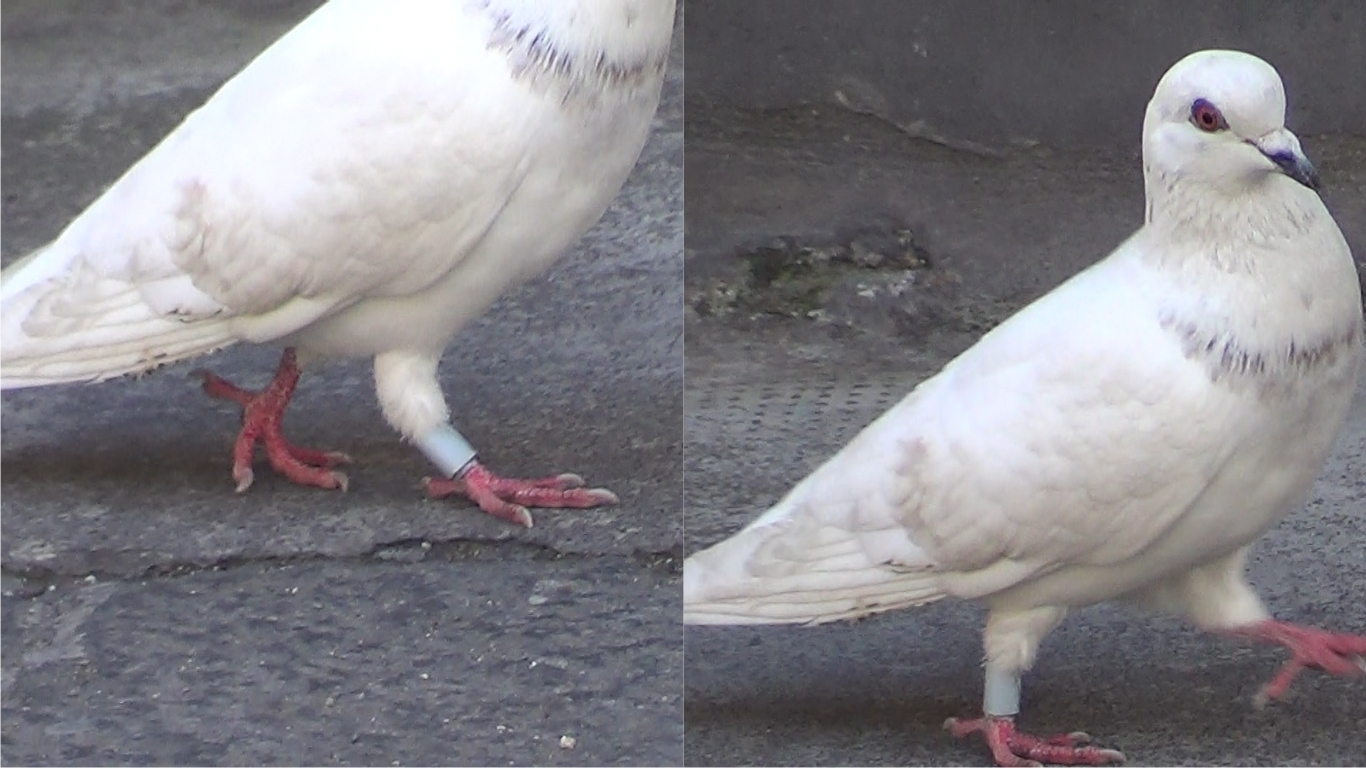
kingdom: Animalia
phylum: Chordata
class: Aves
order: Columbiformes
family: Columbidae
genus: Columba
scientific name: Columba livia
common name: Rock pigeon
